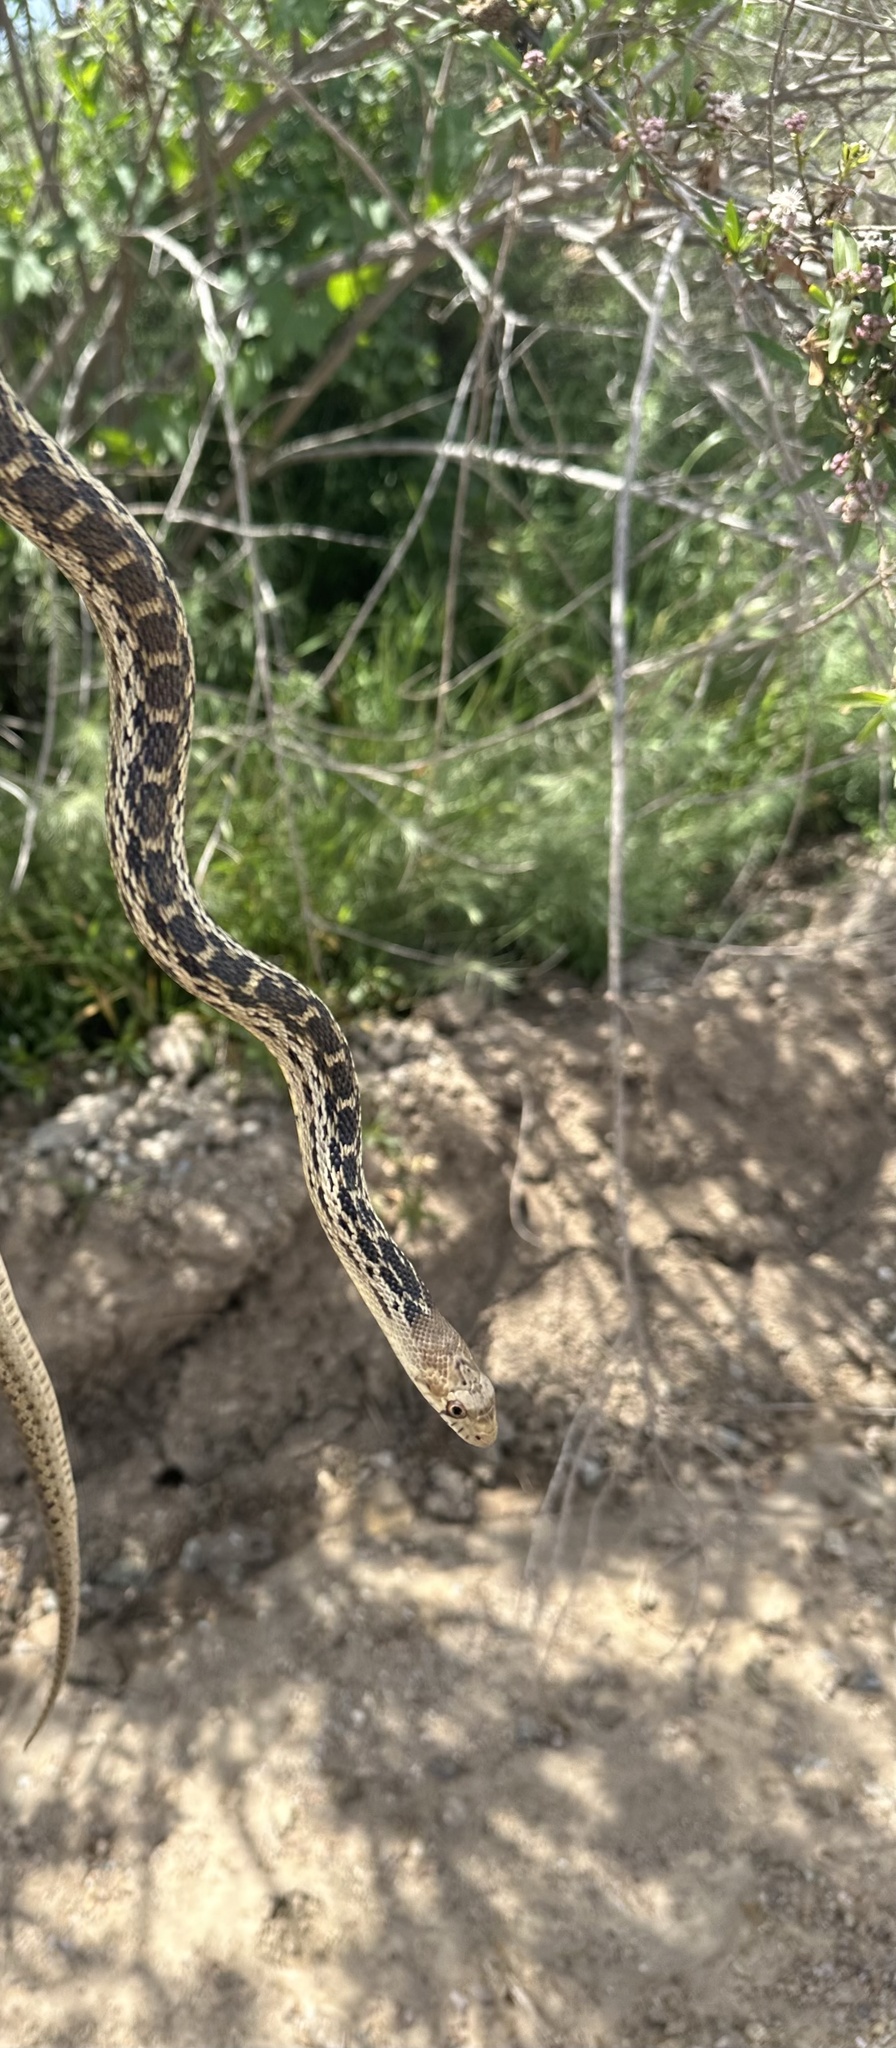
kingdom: Animalia
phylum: Chordata
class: Squamata
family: Colubridae
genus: Pituophis
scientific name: Pituophis catenifer
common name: Gopher snake
